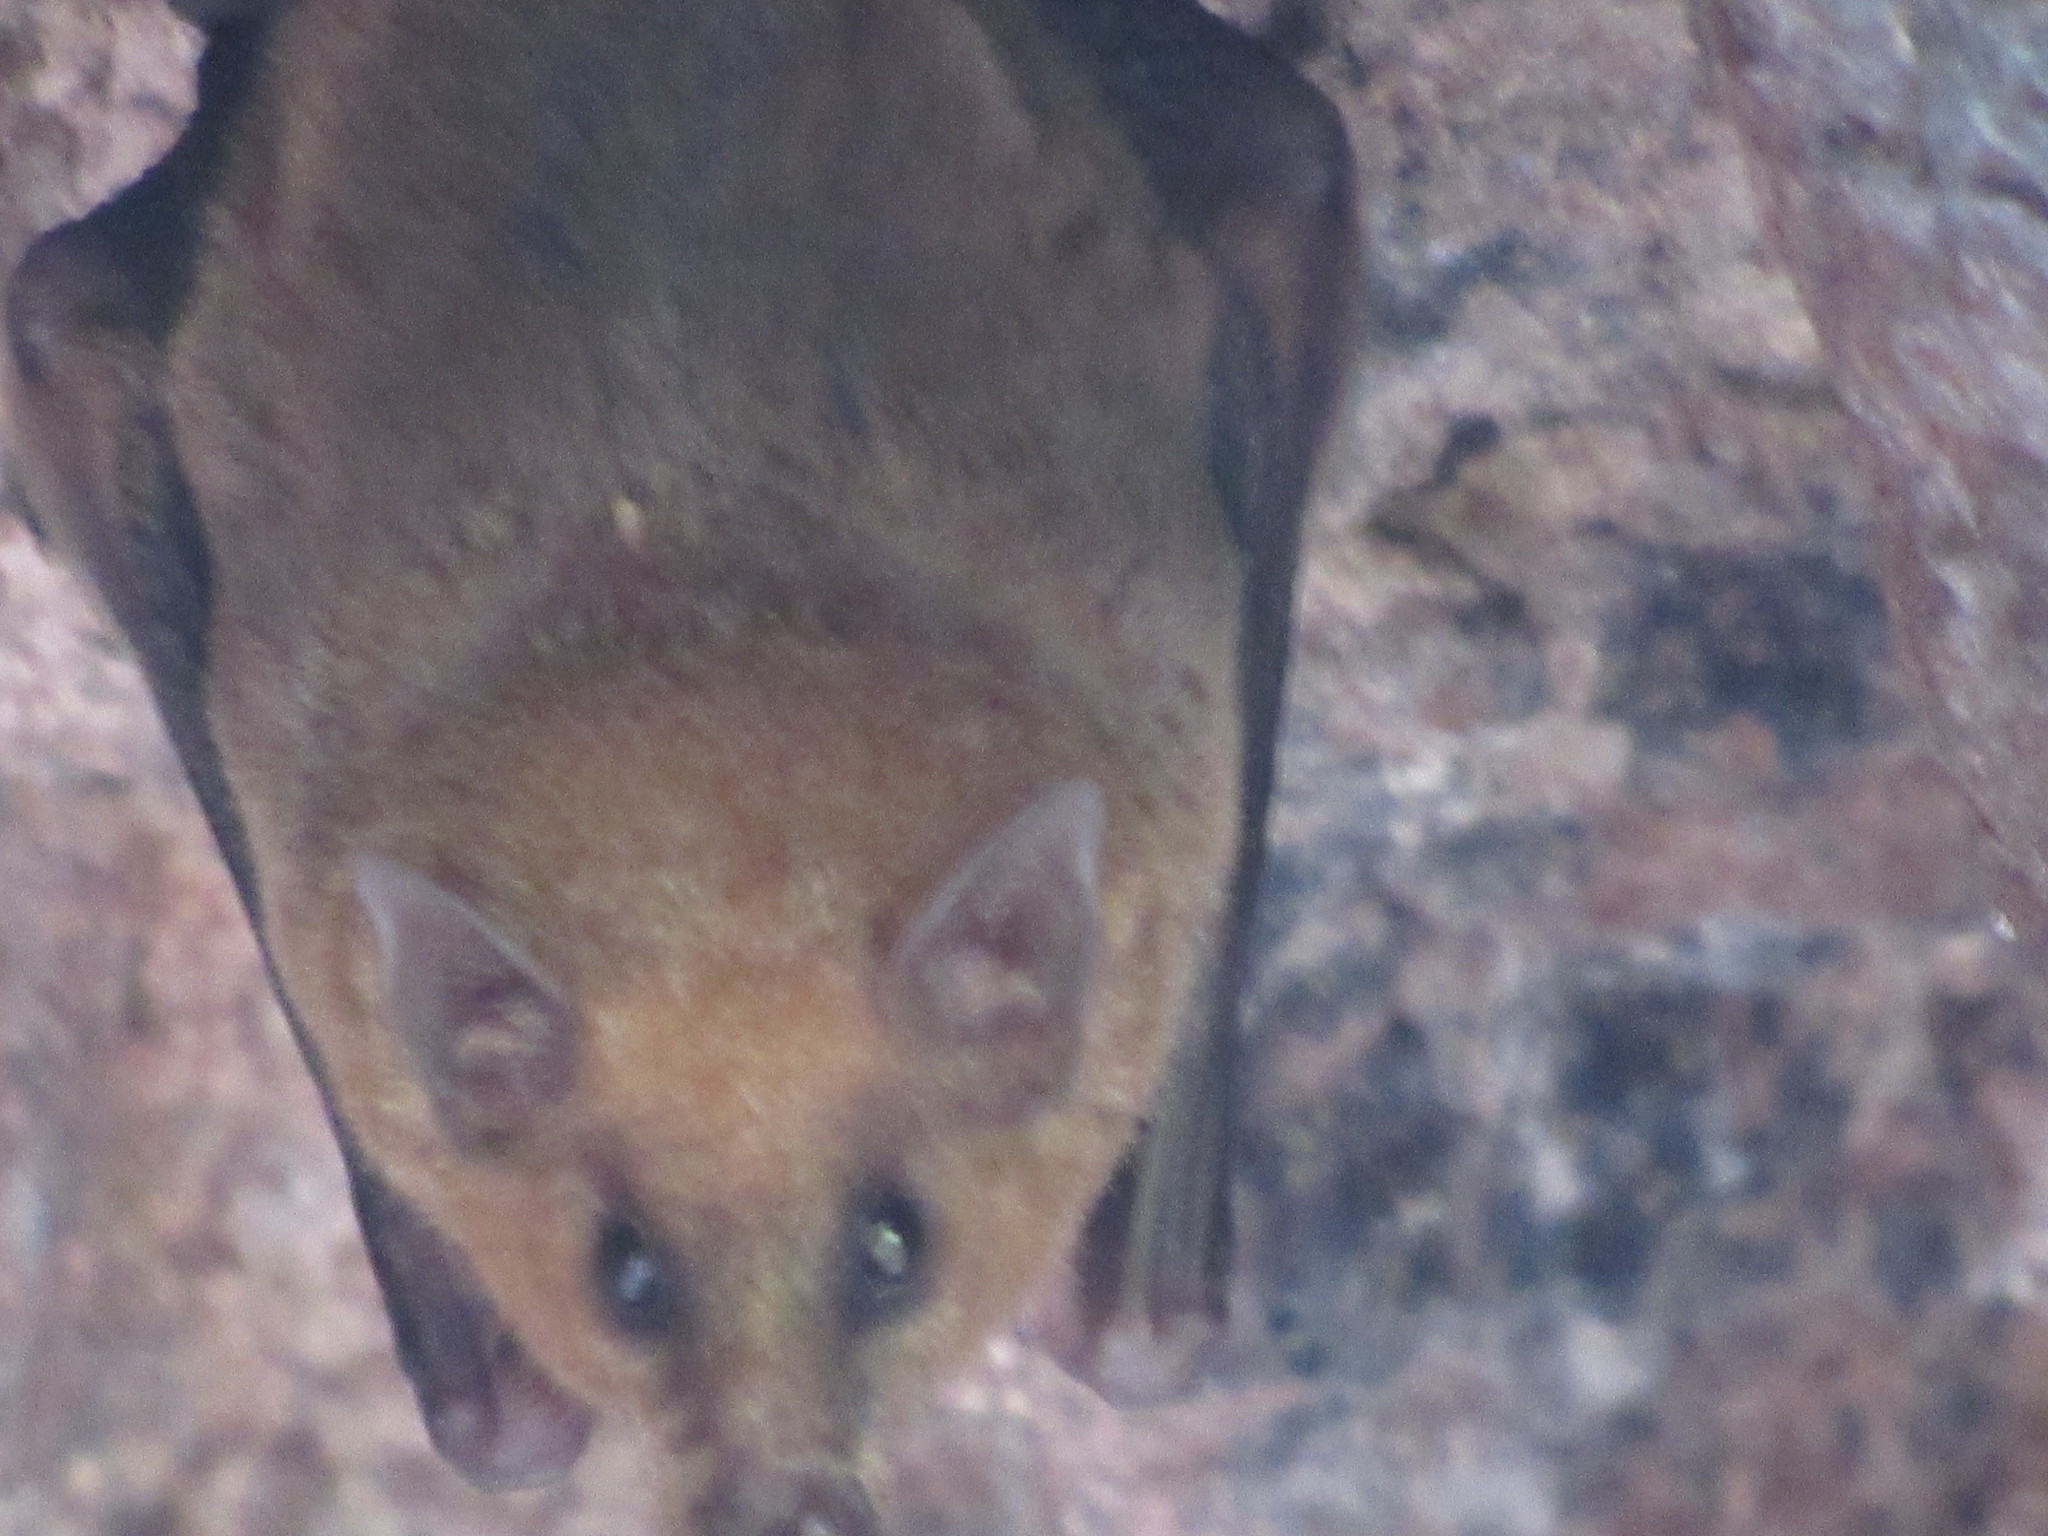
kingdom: Animalia
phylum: Chordata
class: Mammalia
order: Chiroptera
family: Phyllostomidae
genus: Choeronycteris
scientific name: Choeronycteris mexicana
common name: Mexican long-tongued bat
